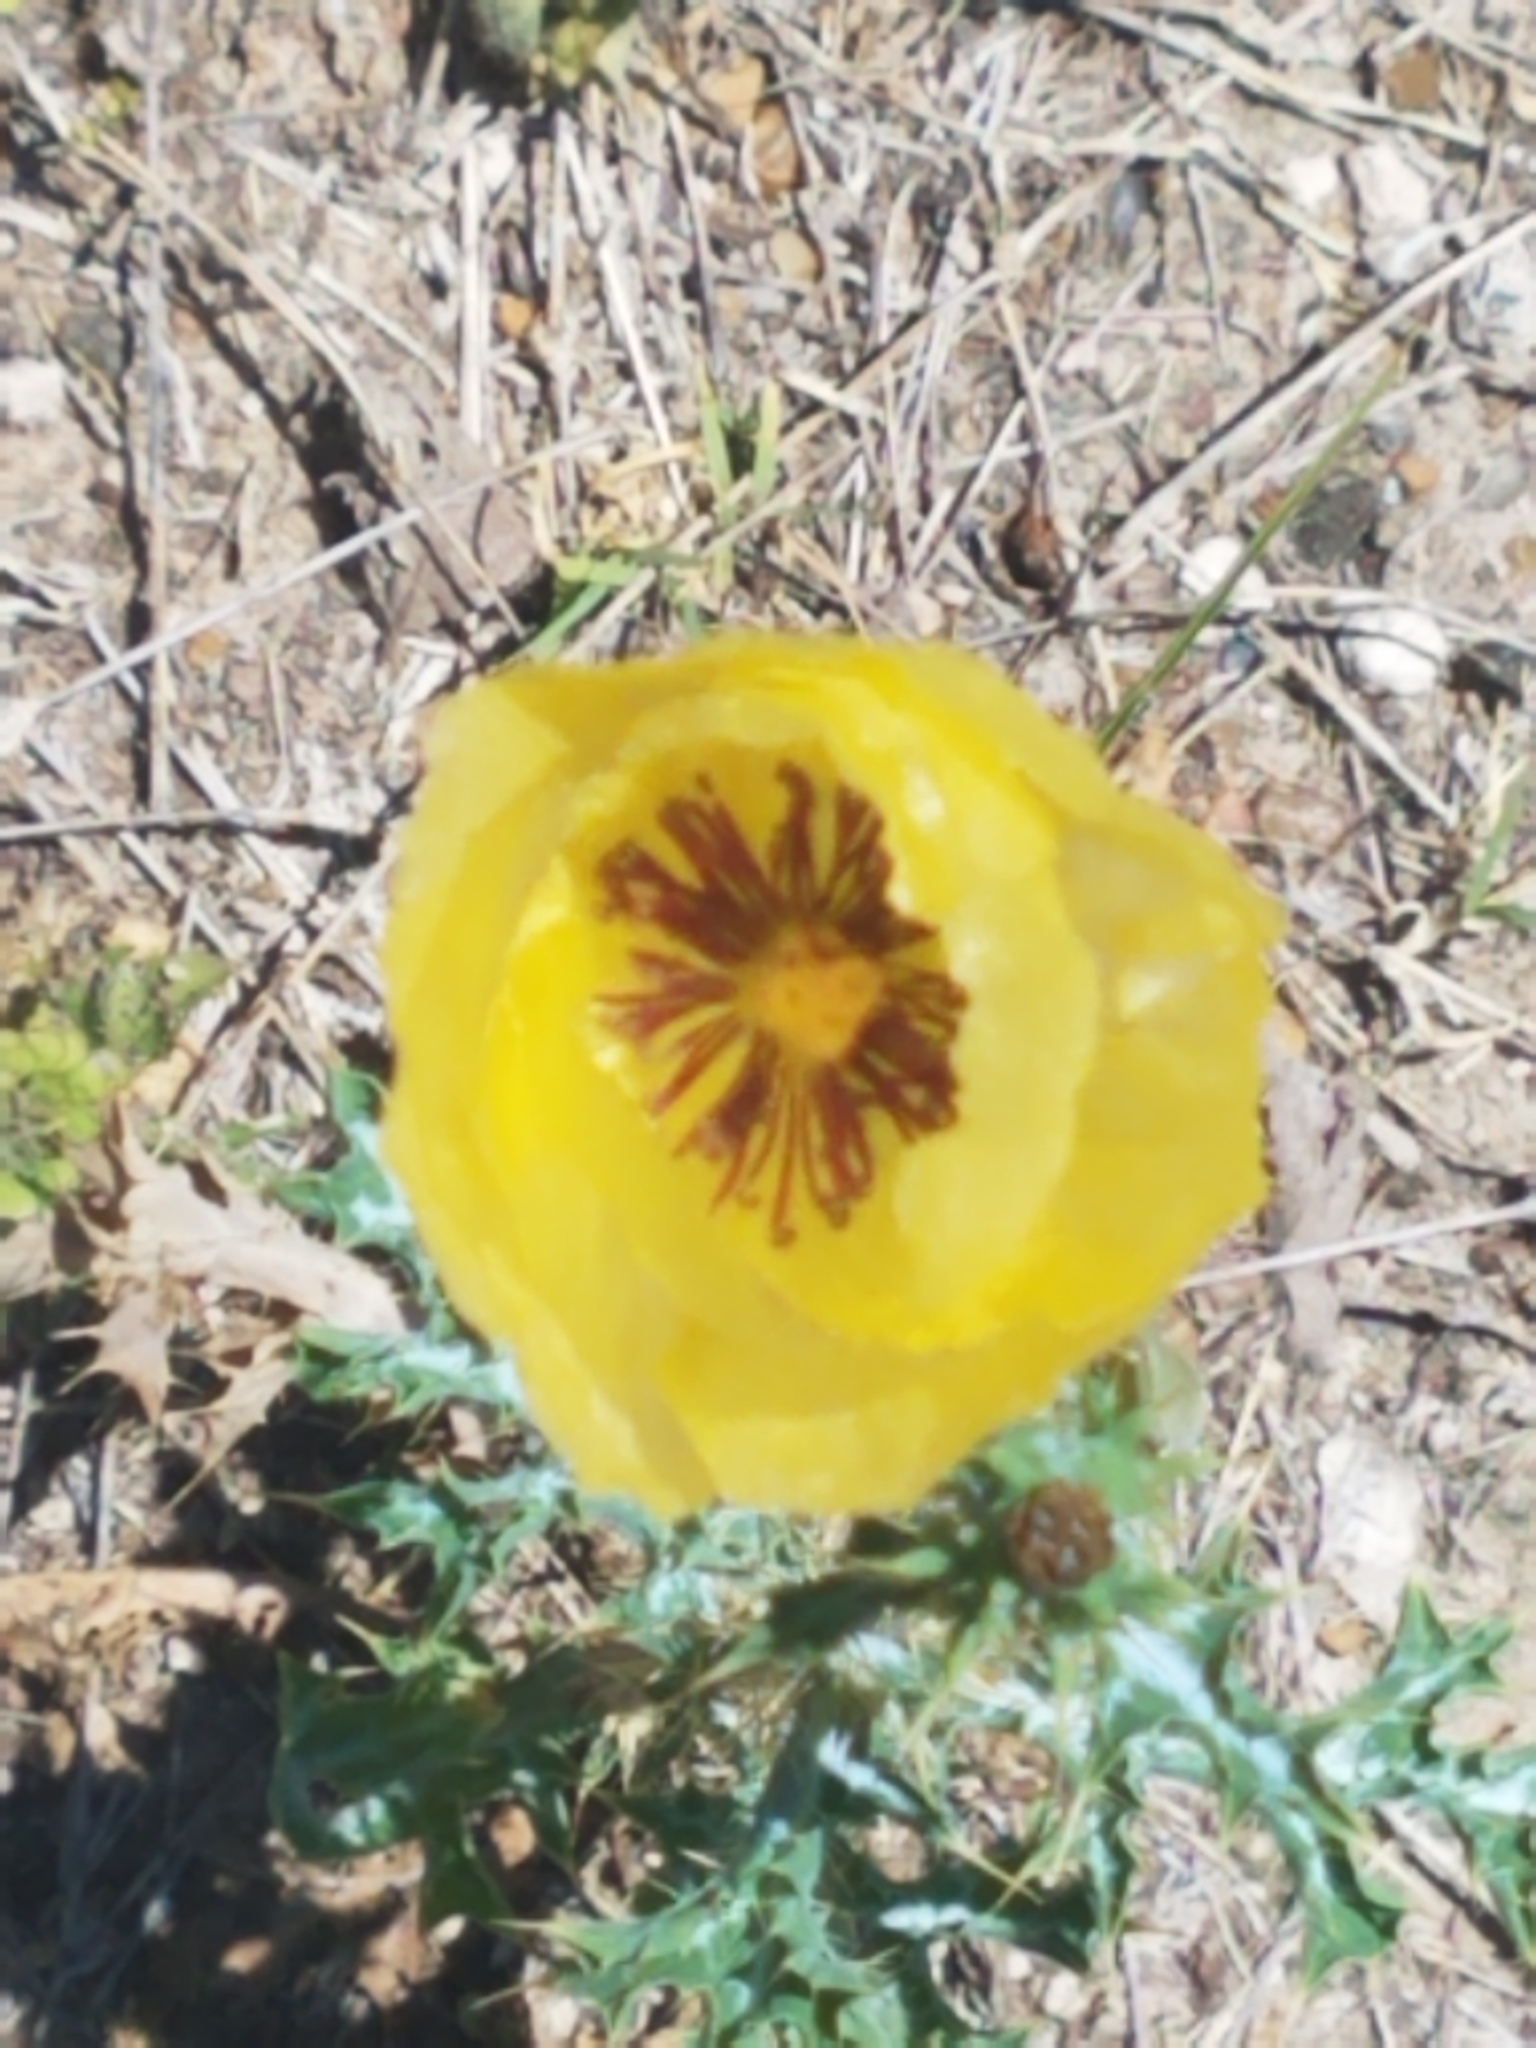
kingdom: Plantae
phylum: Tracheophyta
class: Magnoliopsida
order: Ranunculales
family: Papaveraceae
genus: Argemone
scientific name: Argemone aenea
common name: Golden prickly-poppy
